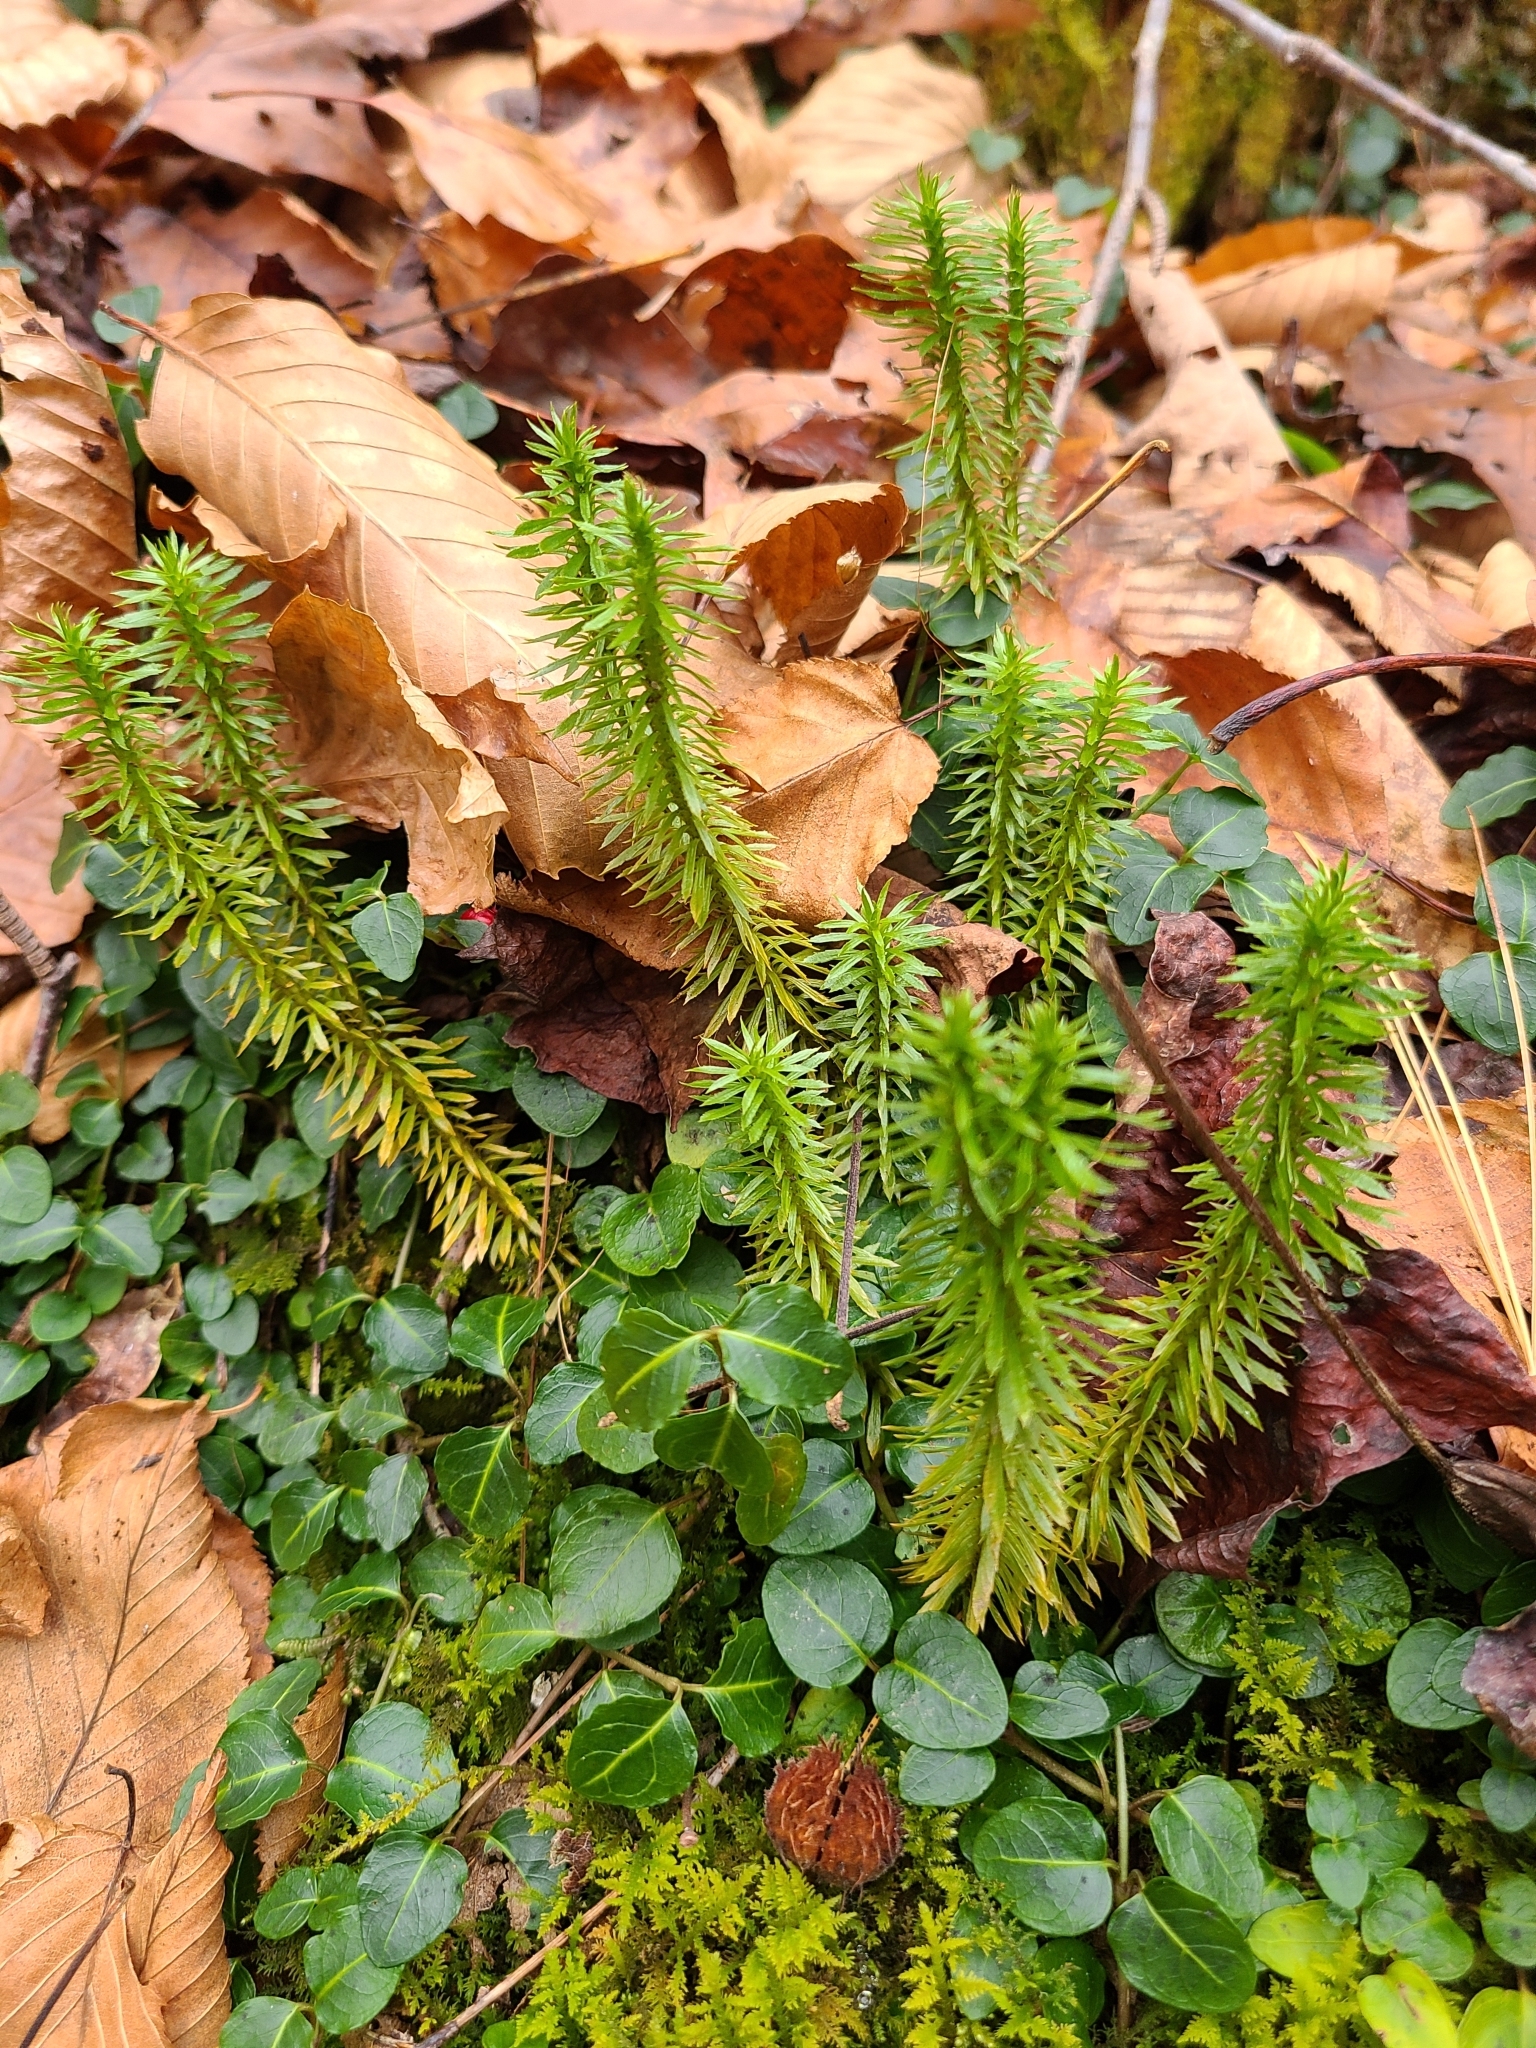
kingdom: Plantae
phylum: Tracheophyta
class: Lycopodiopsida
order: Lycopodiales
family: Lycopodiaceae
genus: Huperzia
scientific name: Huperzia lucidula
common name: Shining clubmoss
